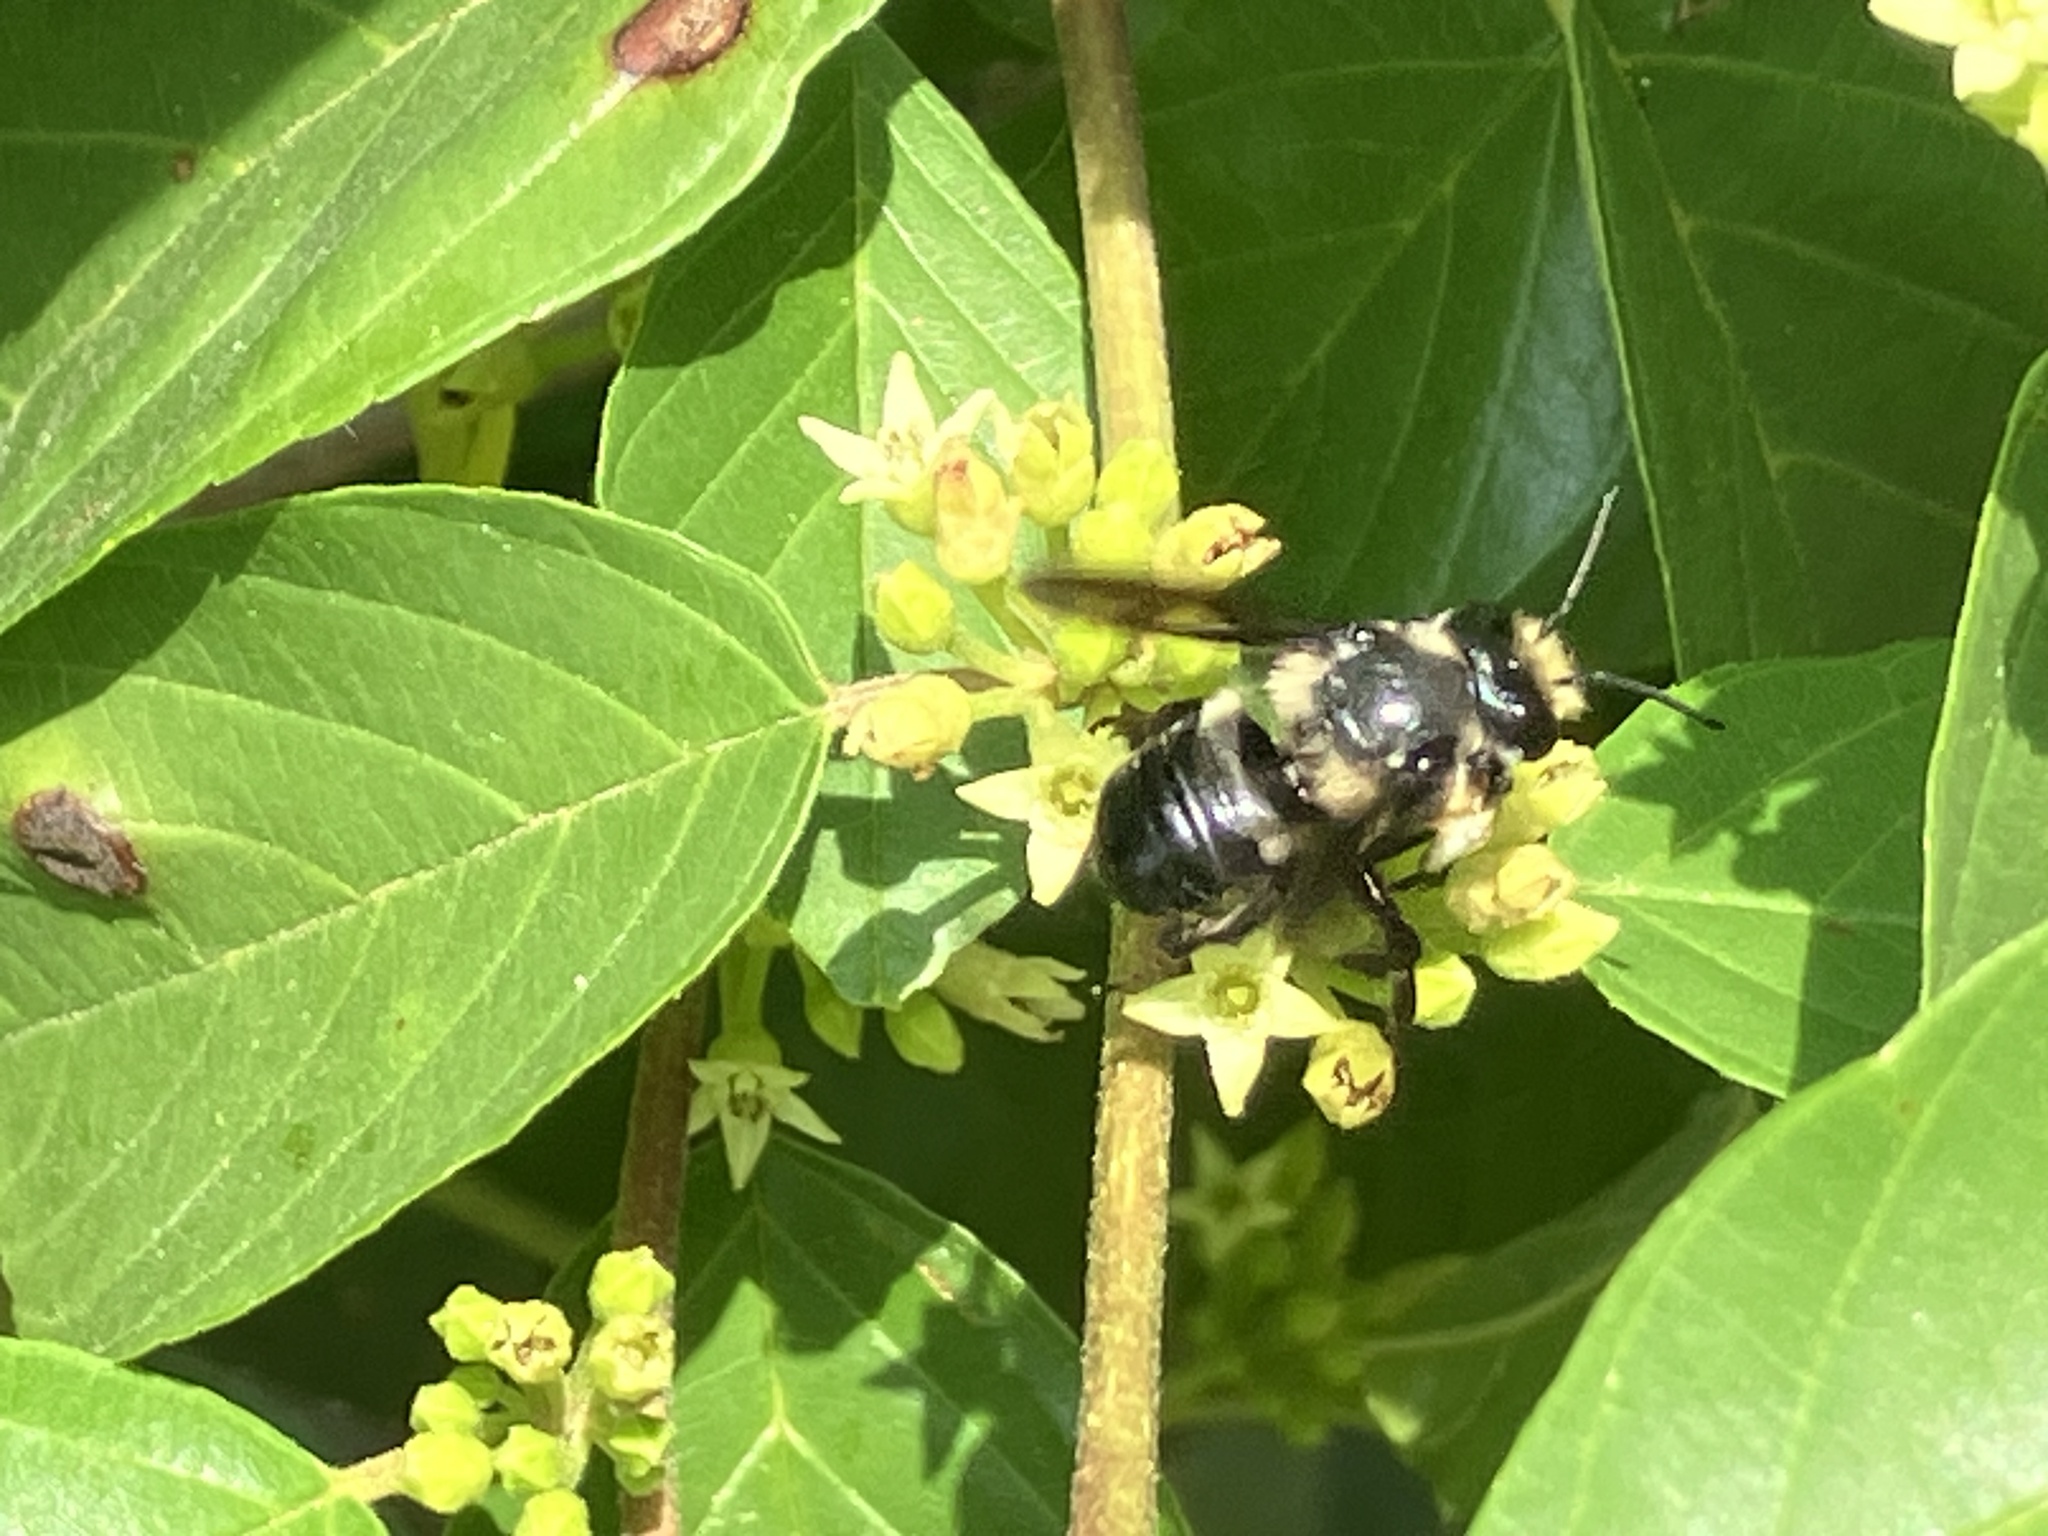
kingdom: Animalia
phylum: Arthropoda
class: Insecta
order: Hymenoptera
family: Megachilidae
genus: Megachile
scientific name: Megachile xylocopoides
